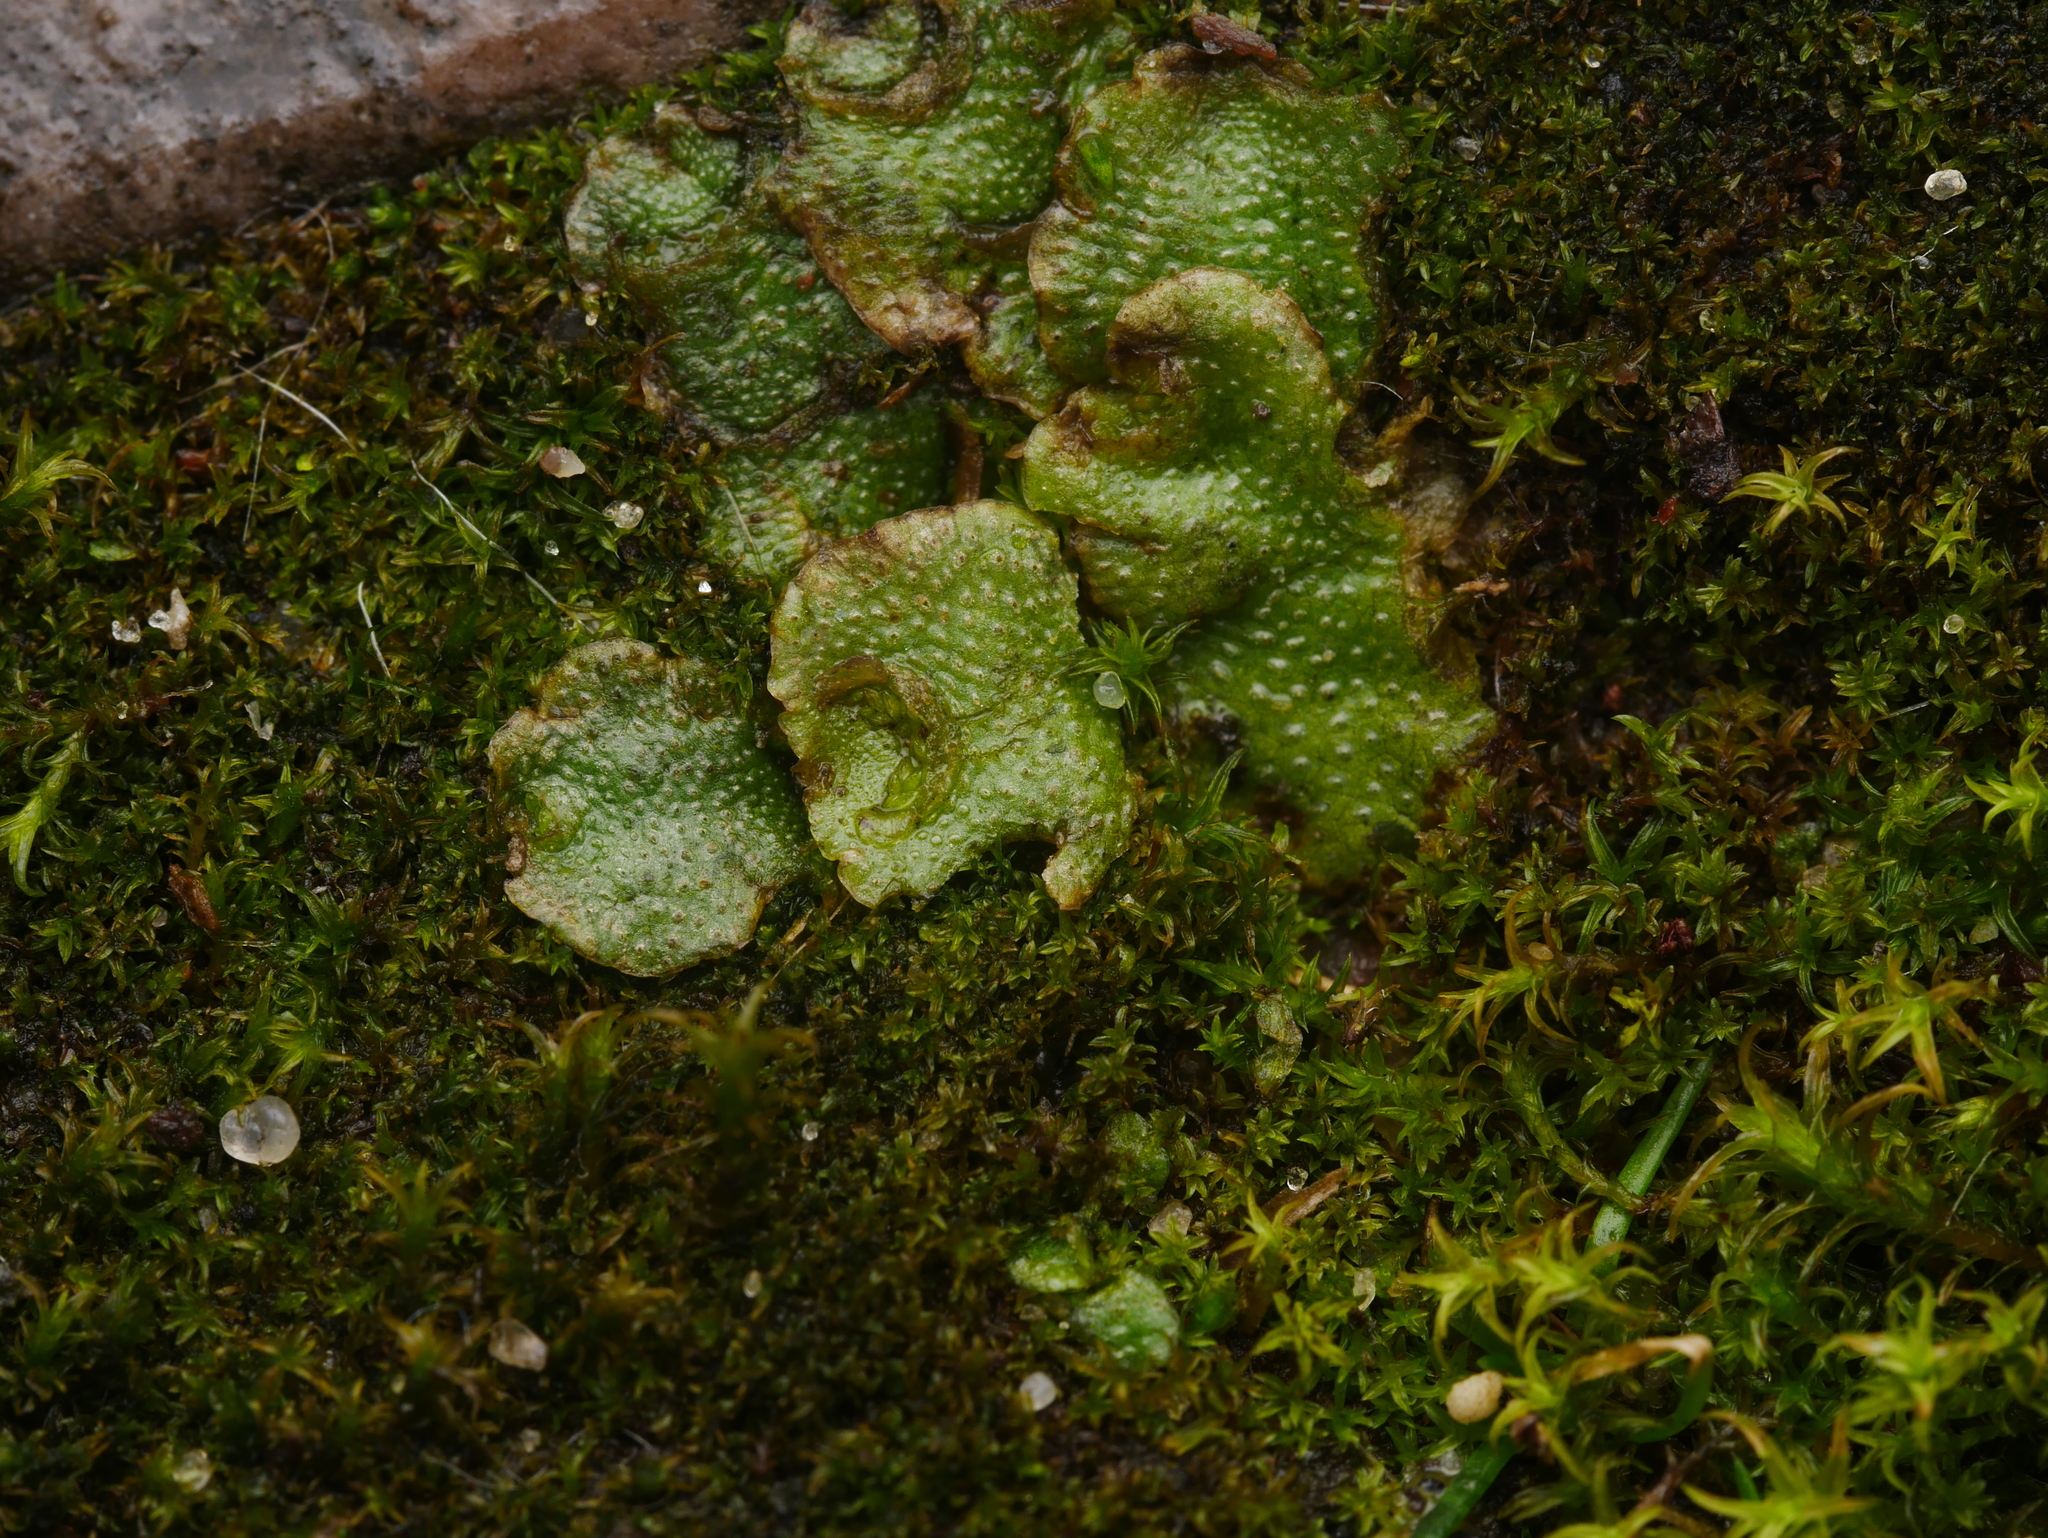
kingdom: Plantae
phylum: Marchantiophyta
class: Marchantiopsida
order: Lunulariales
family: Lunulariaceae
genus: Lunularia
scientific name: Lunularia cruciata
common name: Crescent-cup liverwort
